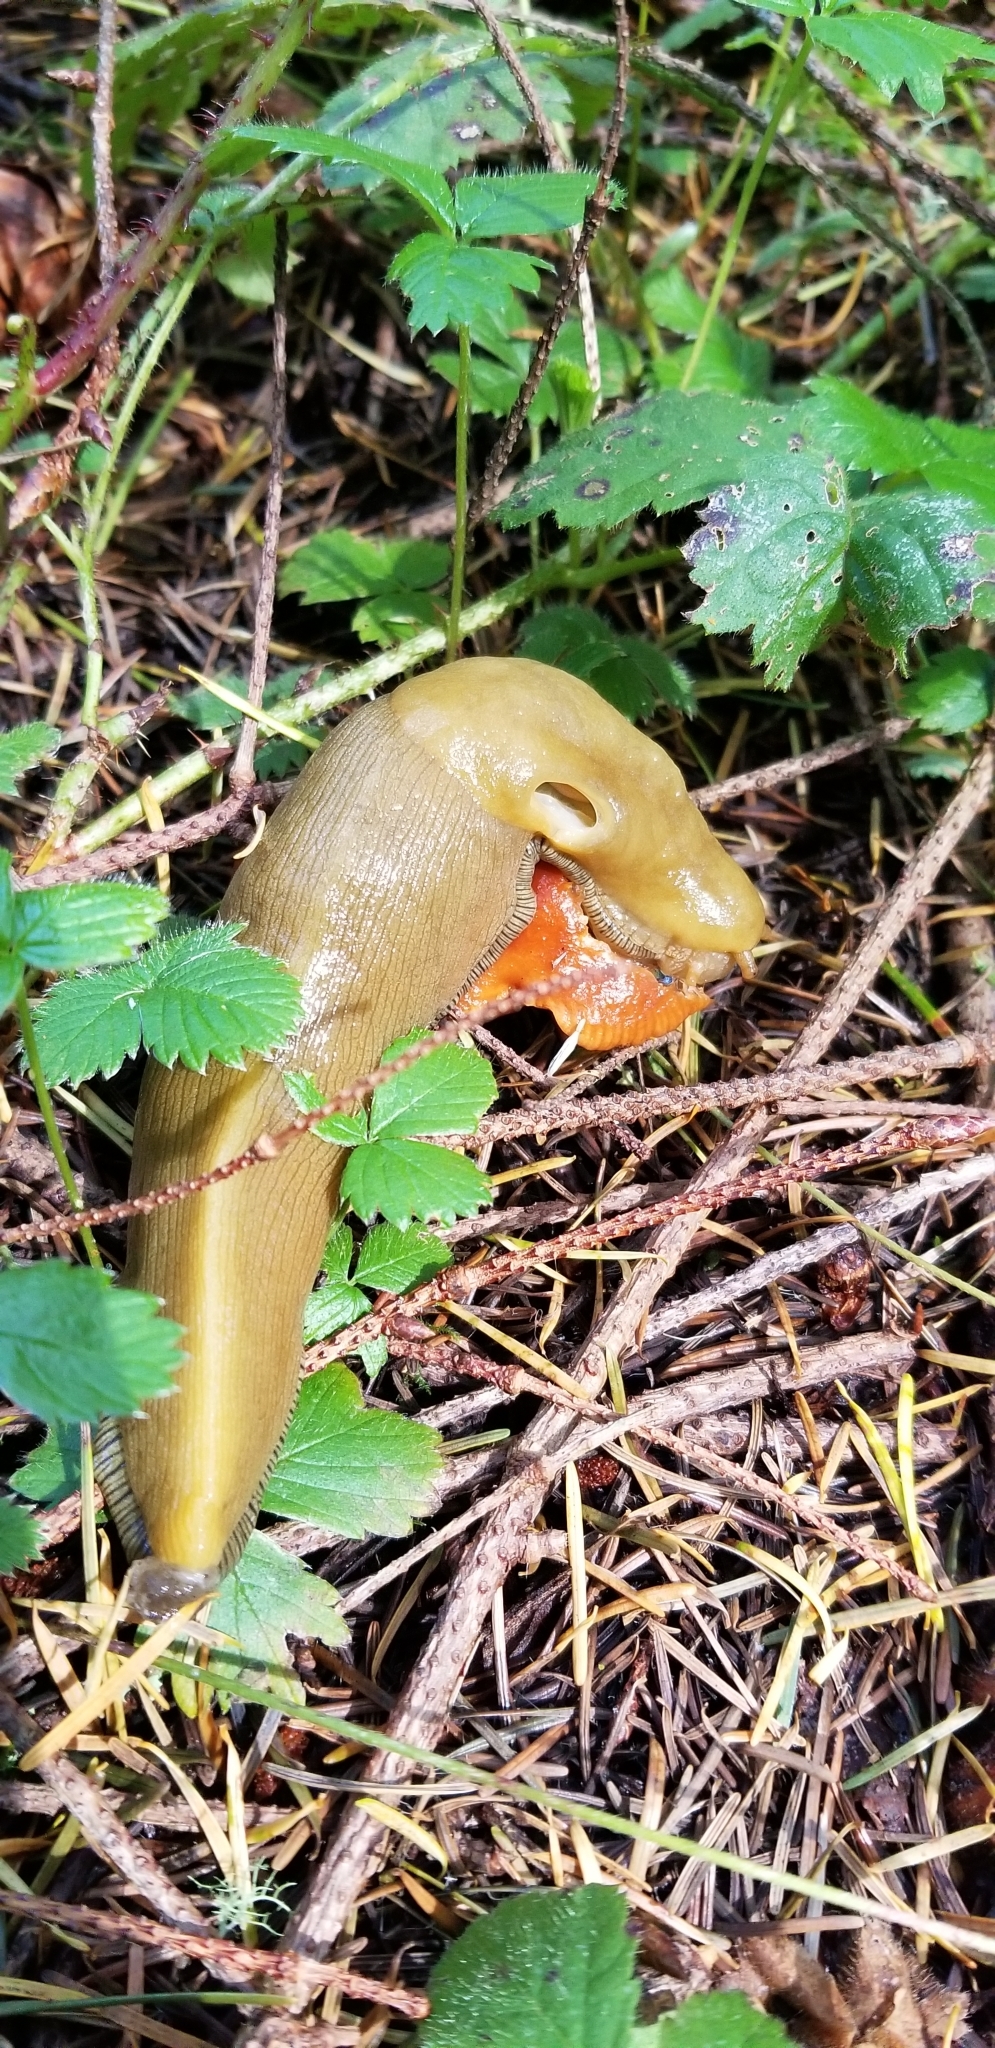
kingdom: Animalia
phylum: Mollusca
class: Gastropoda
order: Stylommatophora
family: Ariolimacidae
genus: Ariolimax
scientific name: Ariolimax buttoni
